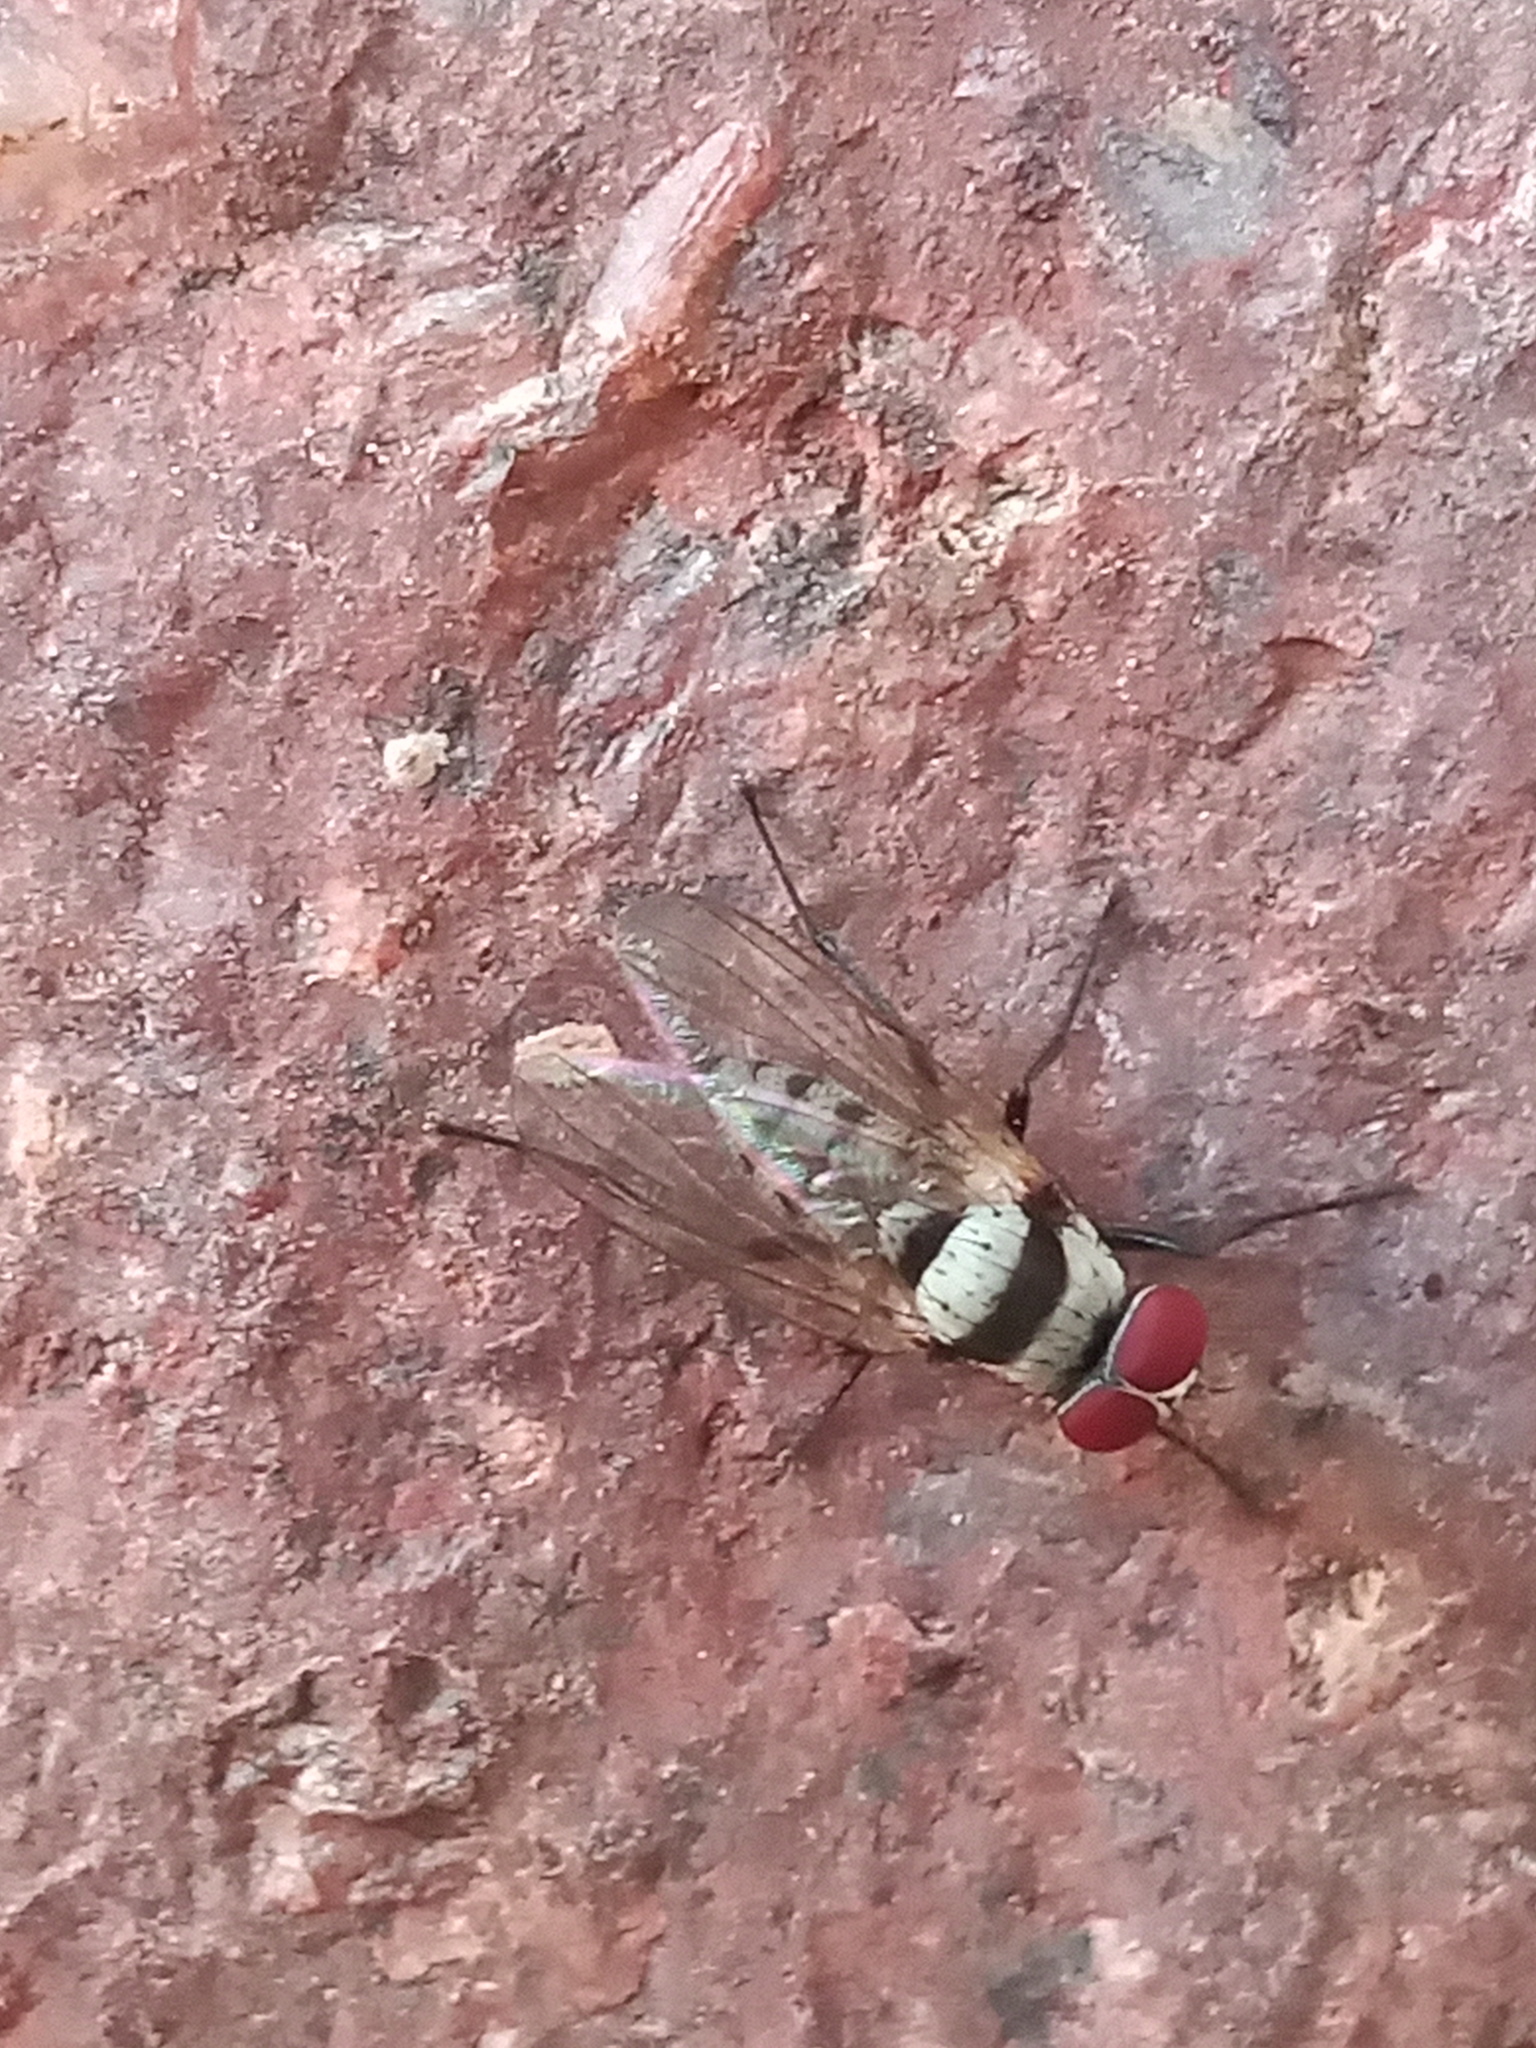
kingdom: Animalia
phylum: Arthropoda
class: Insecta
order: Diptera
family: Anthomyiidae
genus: Anthomyia
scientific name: Anthomyia illocata
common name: Fly
